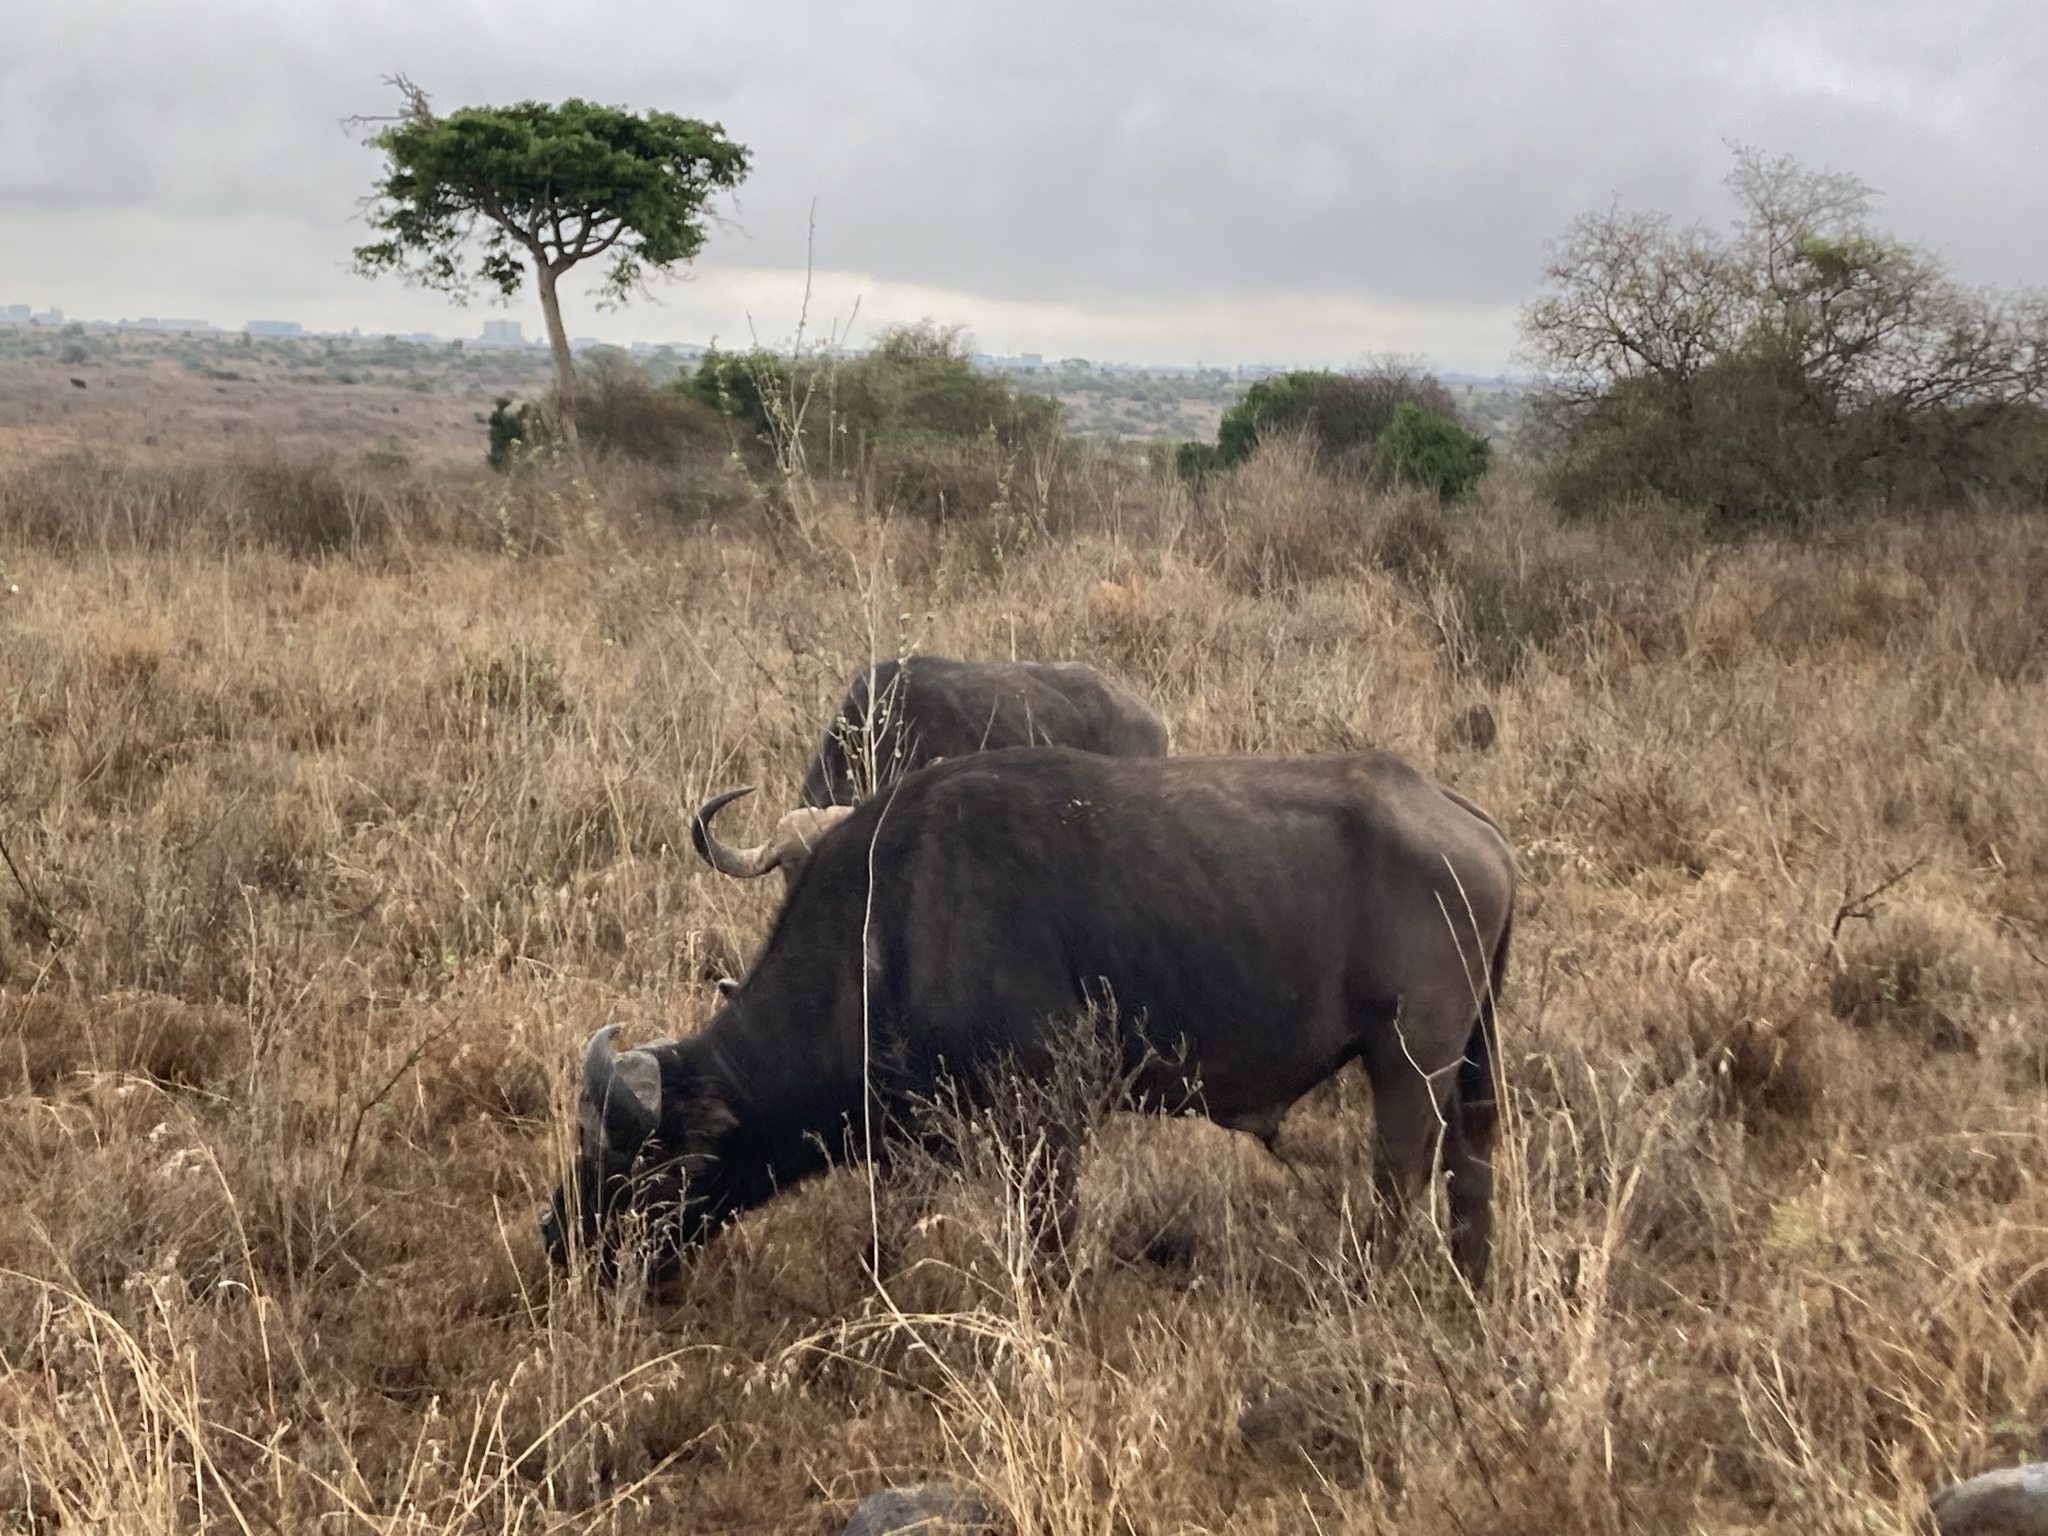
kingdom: Animalia
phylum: Chordata
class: Mammalia
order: Artiodactyla
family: Bovidae
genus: Syncerus
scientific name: Syncerus caffer
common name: African buffalo
